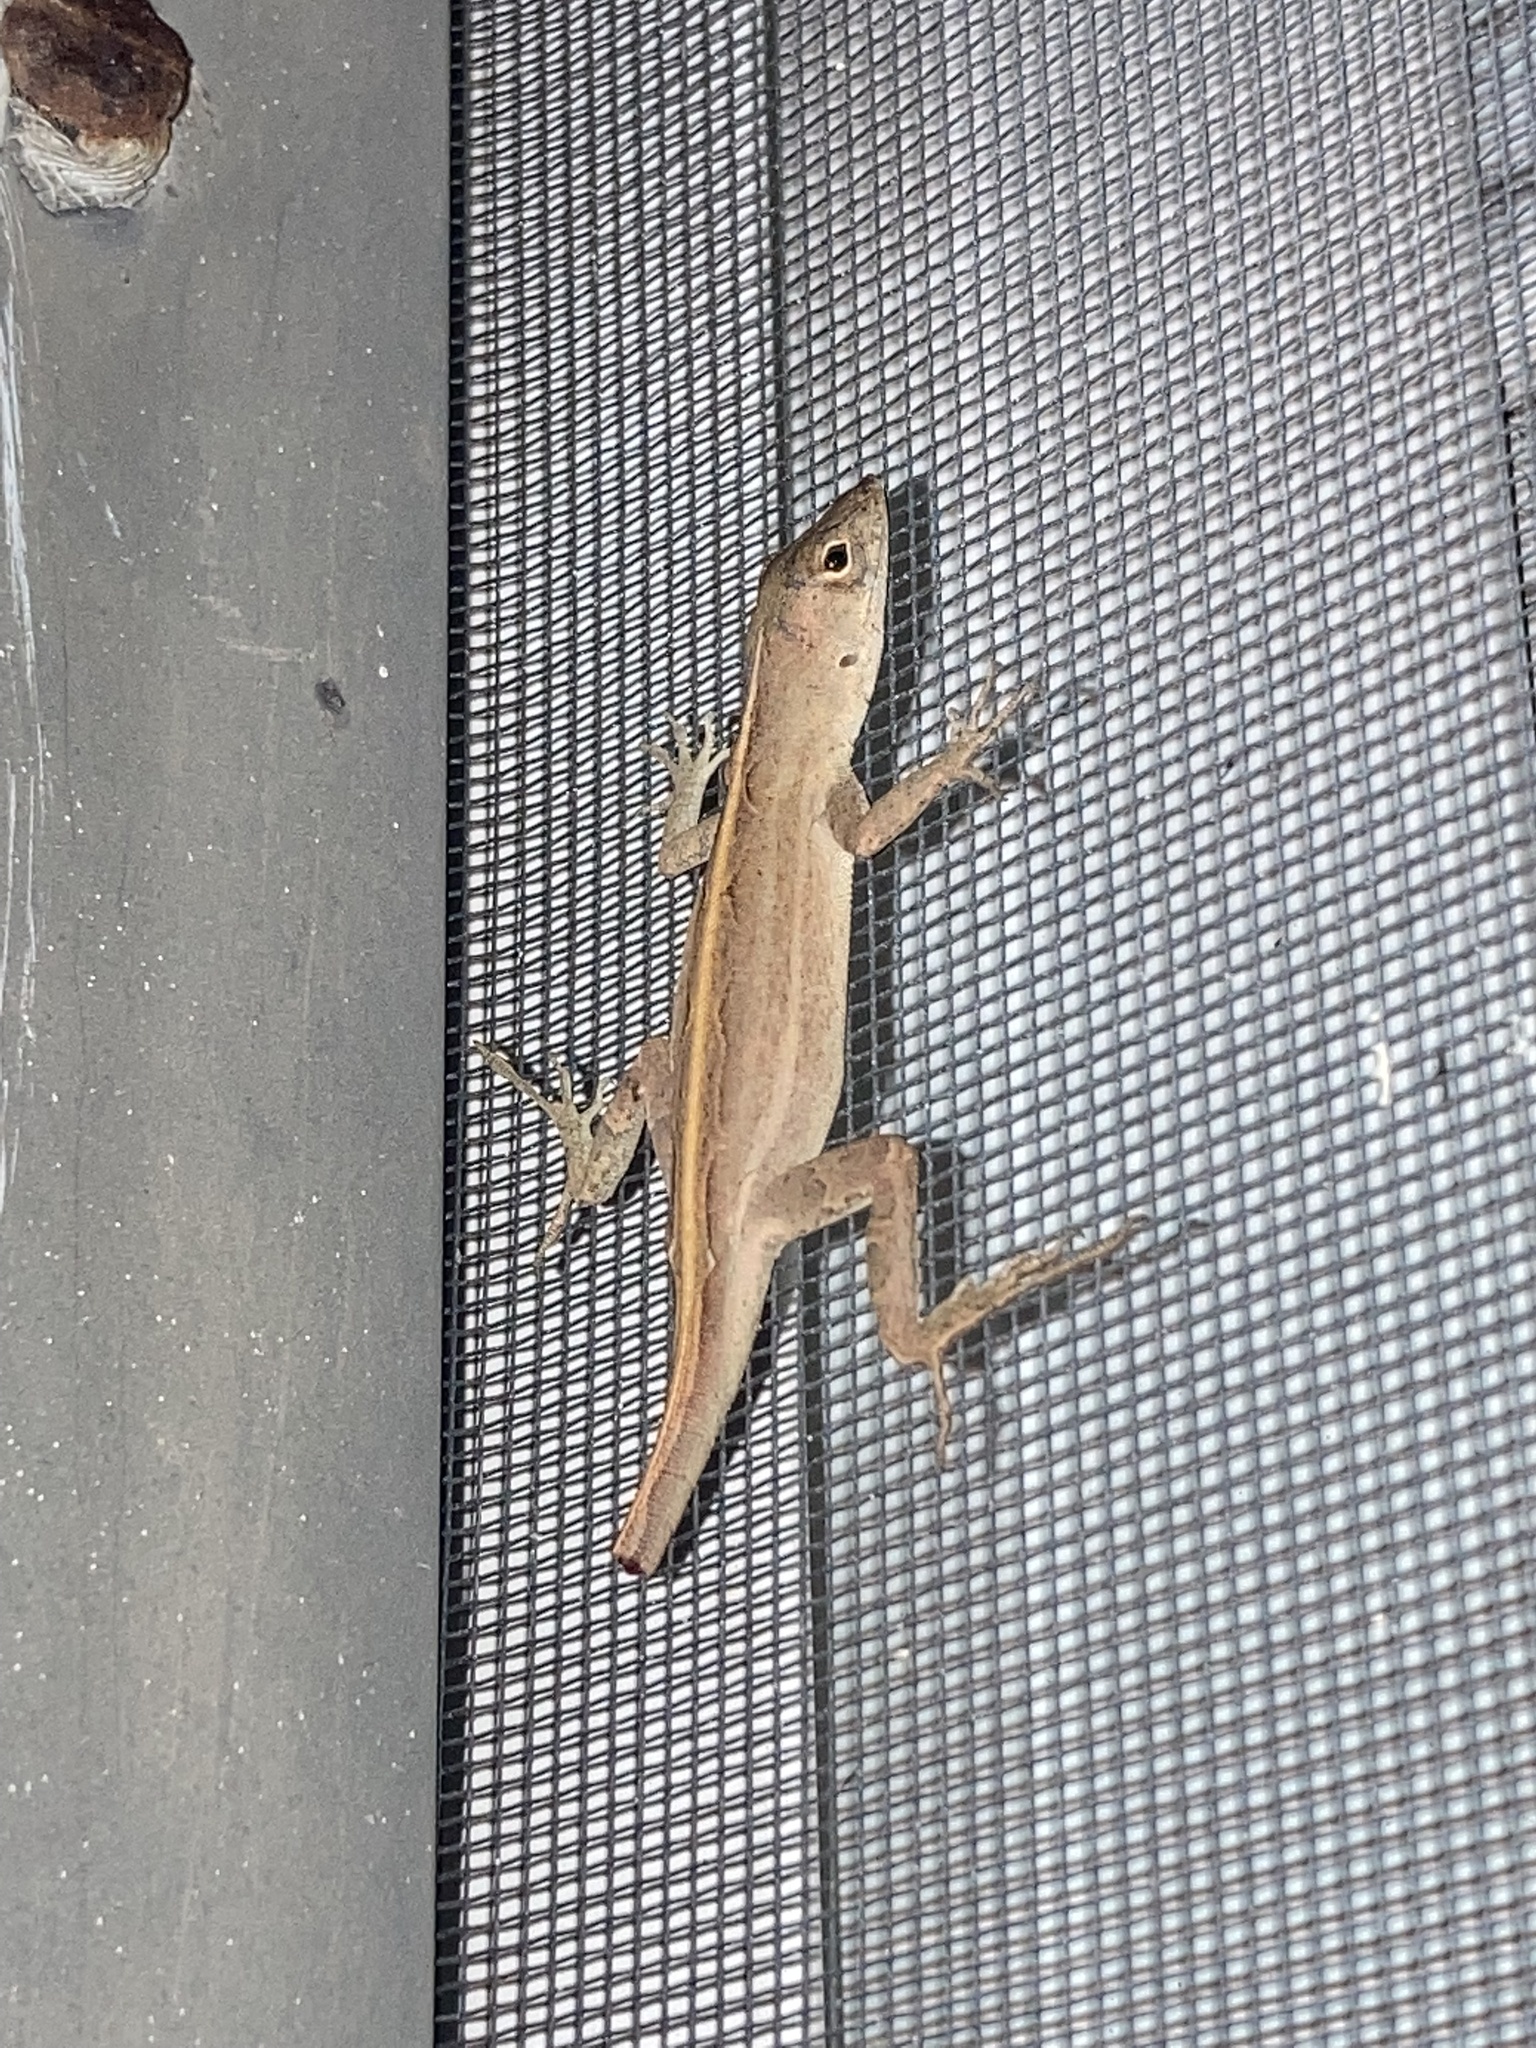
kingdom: Animalia
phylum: Chordata
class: Squamata
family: Dactyloidae
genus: Anolis
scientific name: Anolis sagrei
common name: Brown anole
